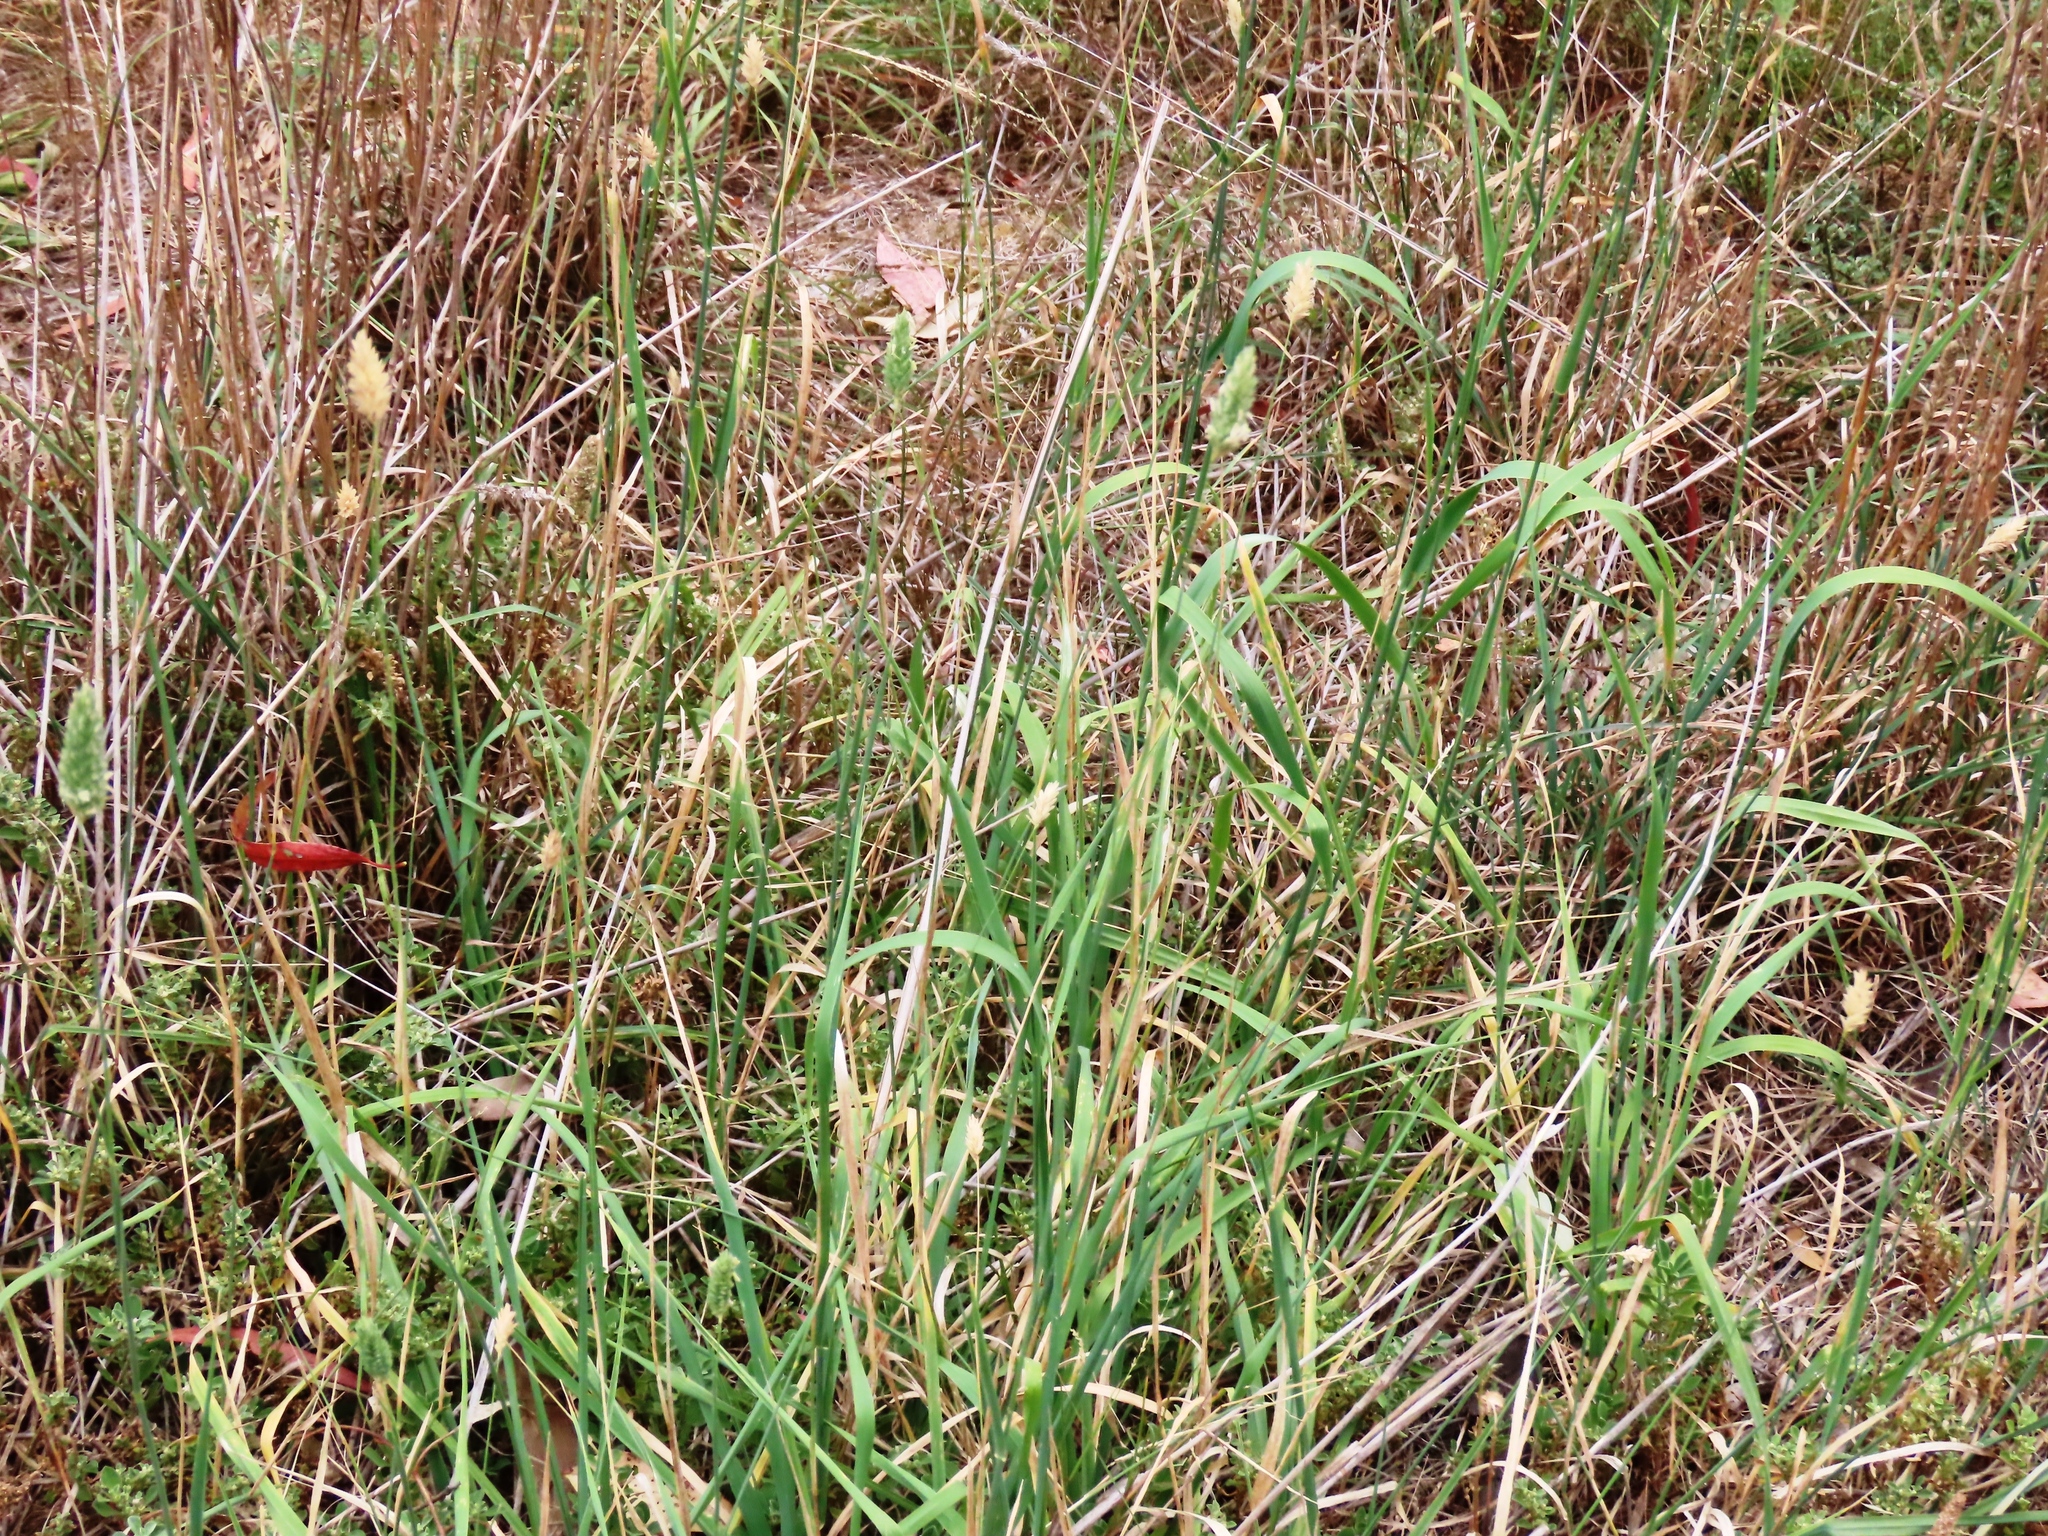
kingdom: Plantae
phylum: Tracheophyta
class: Liliopsida
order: Poales
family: Poaceae
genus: Phalaris
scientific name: Phalaris aquatica
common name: Bulbous canary-grass
